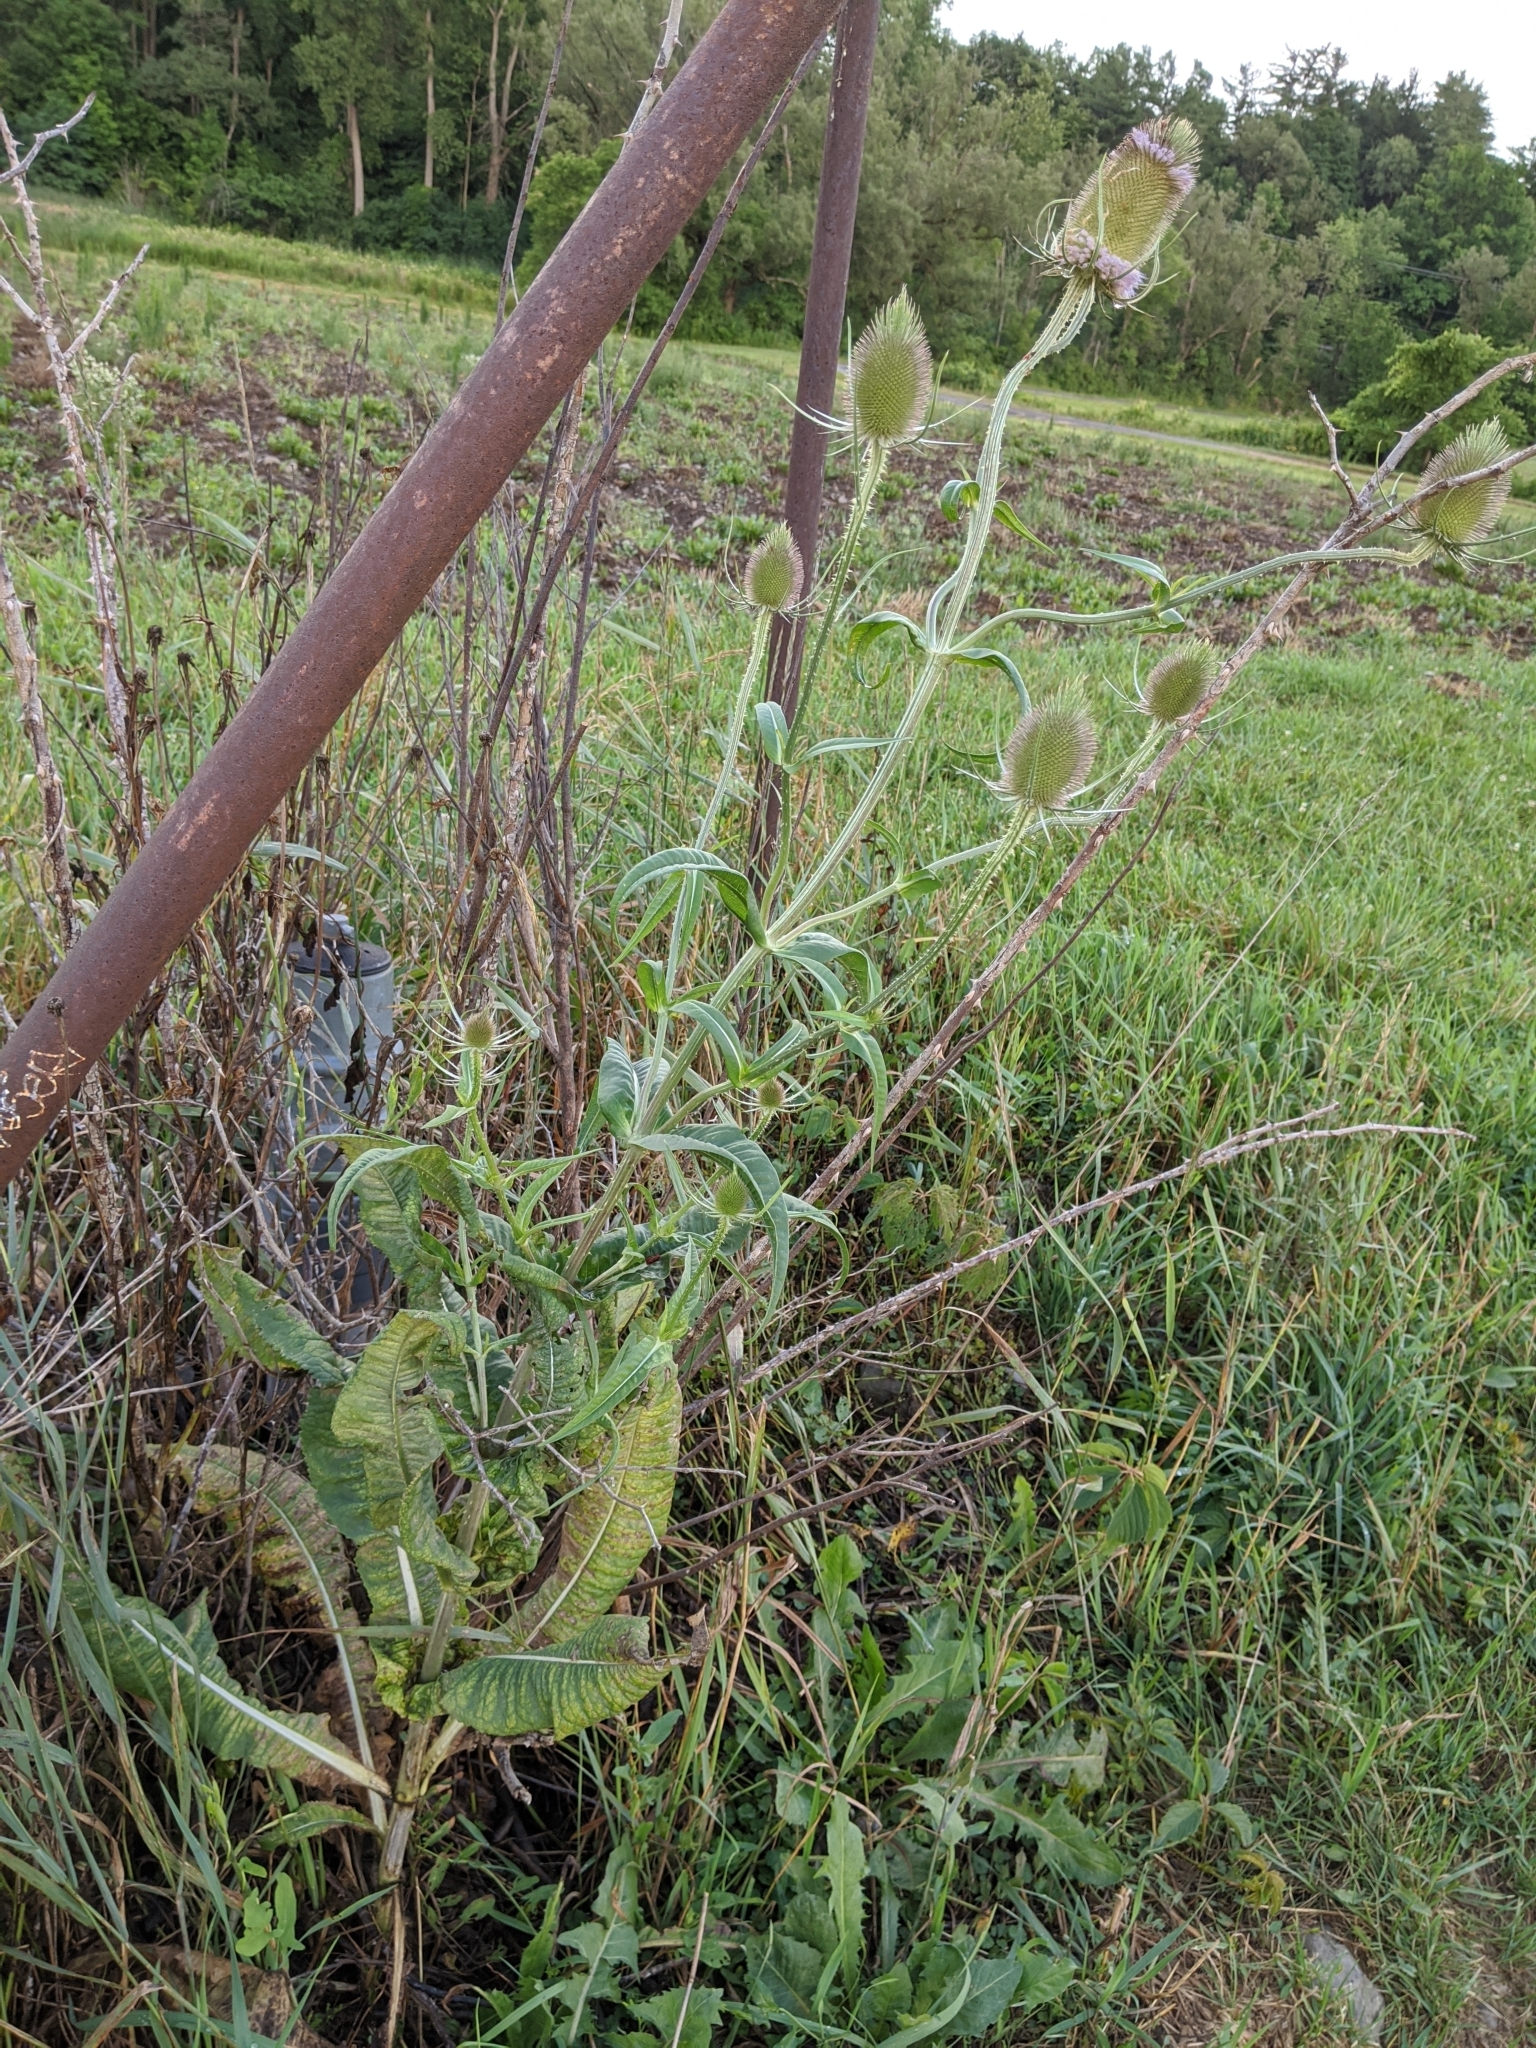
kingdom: Plantae
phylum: Tracheophyta
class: Magnoliopsida
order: Dipsacales
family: Caprifoliaceae
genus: Dipsacus
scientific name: Dipsacus fullonum
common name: Teasel
